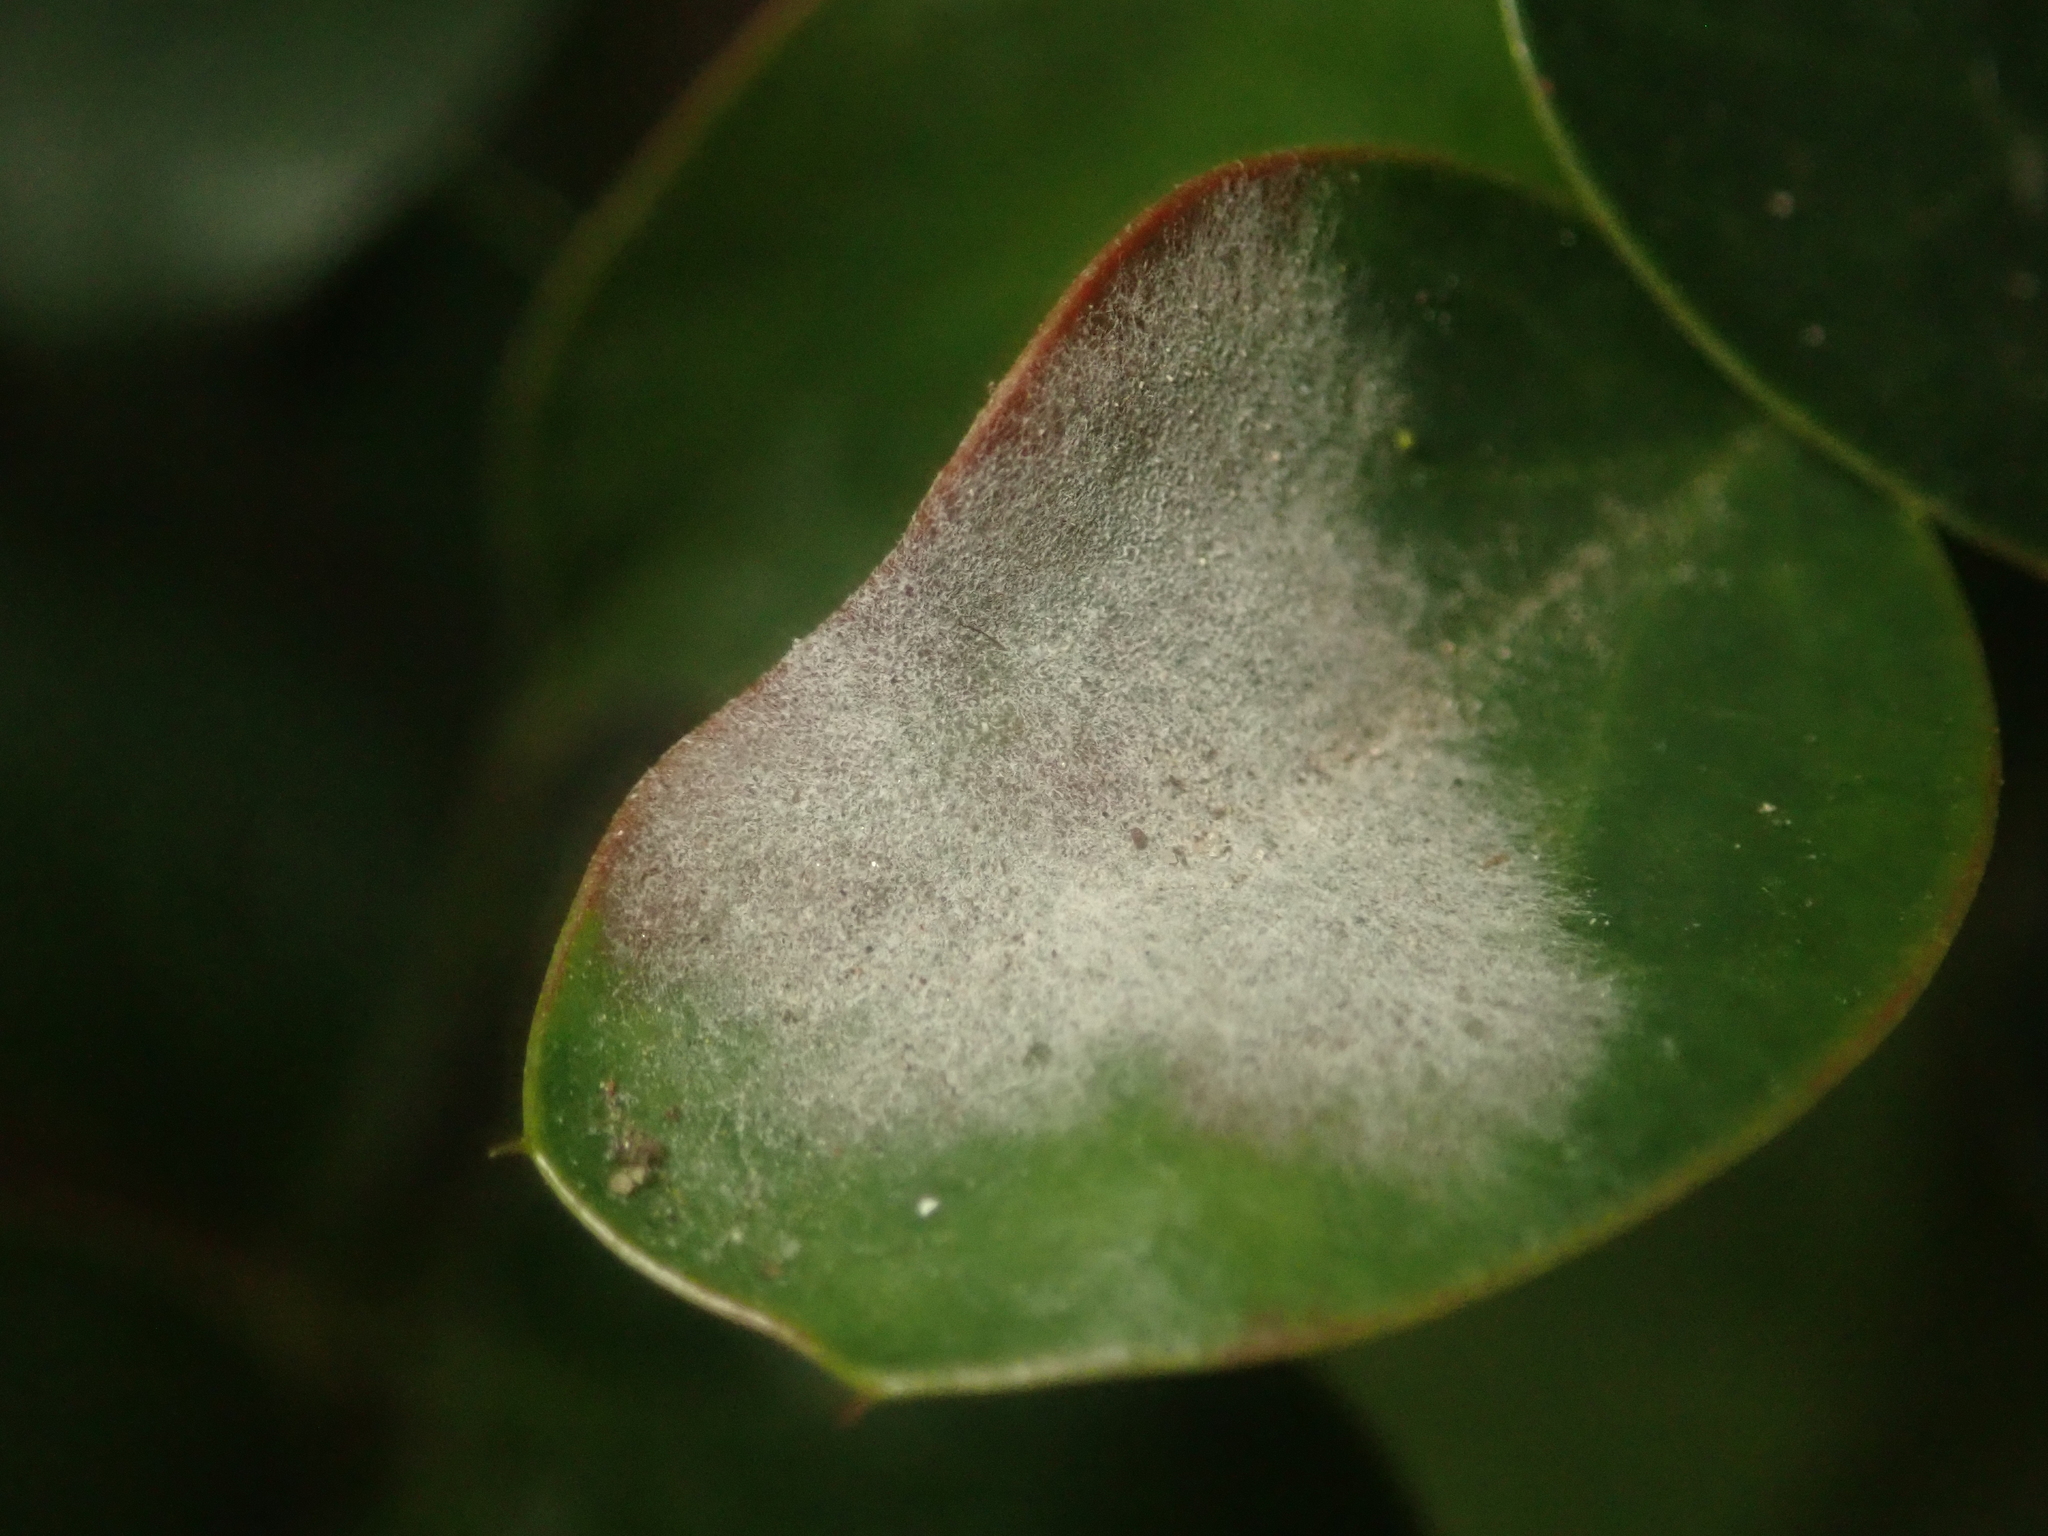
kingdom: Fungi
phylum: Ascomycota
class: Leotiomycetes
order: Helotiales
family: Erysiphaceae
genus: Erysiphe
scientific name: Erysiphe berberidis
